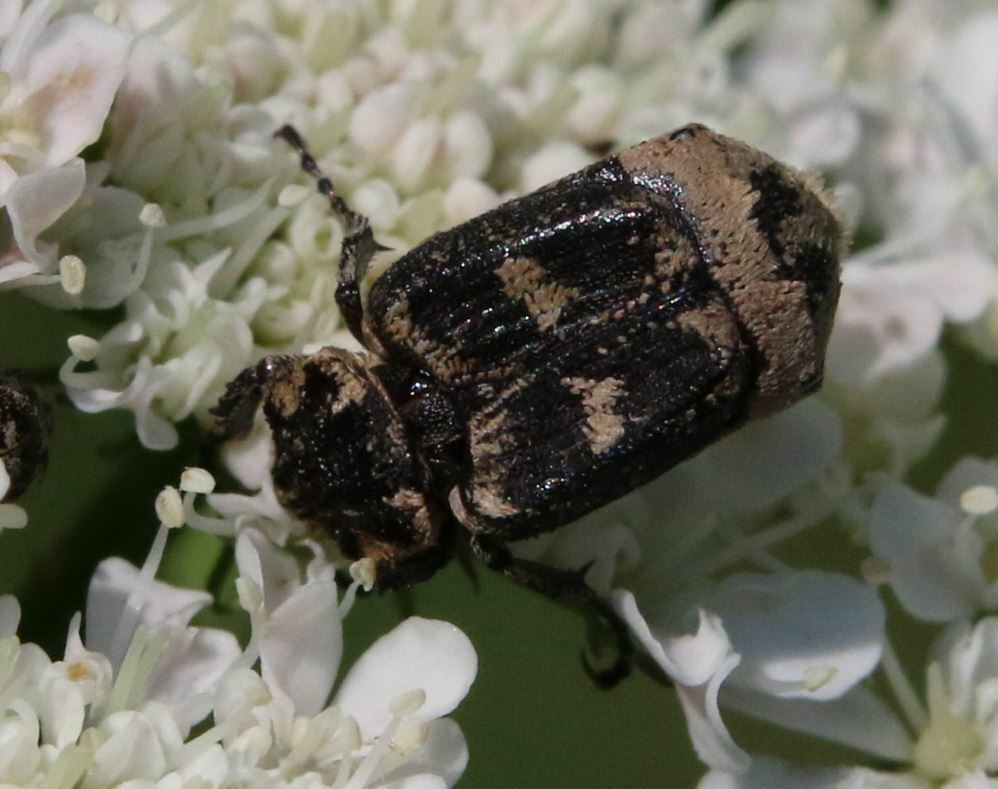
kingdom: Animalia
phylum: Arthropoda
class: Insecta
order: Coleoptera
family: Scarabaeidae
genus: Valgus
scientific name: Valgus hemipterus
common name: Bug flower chafer
